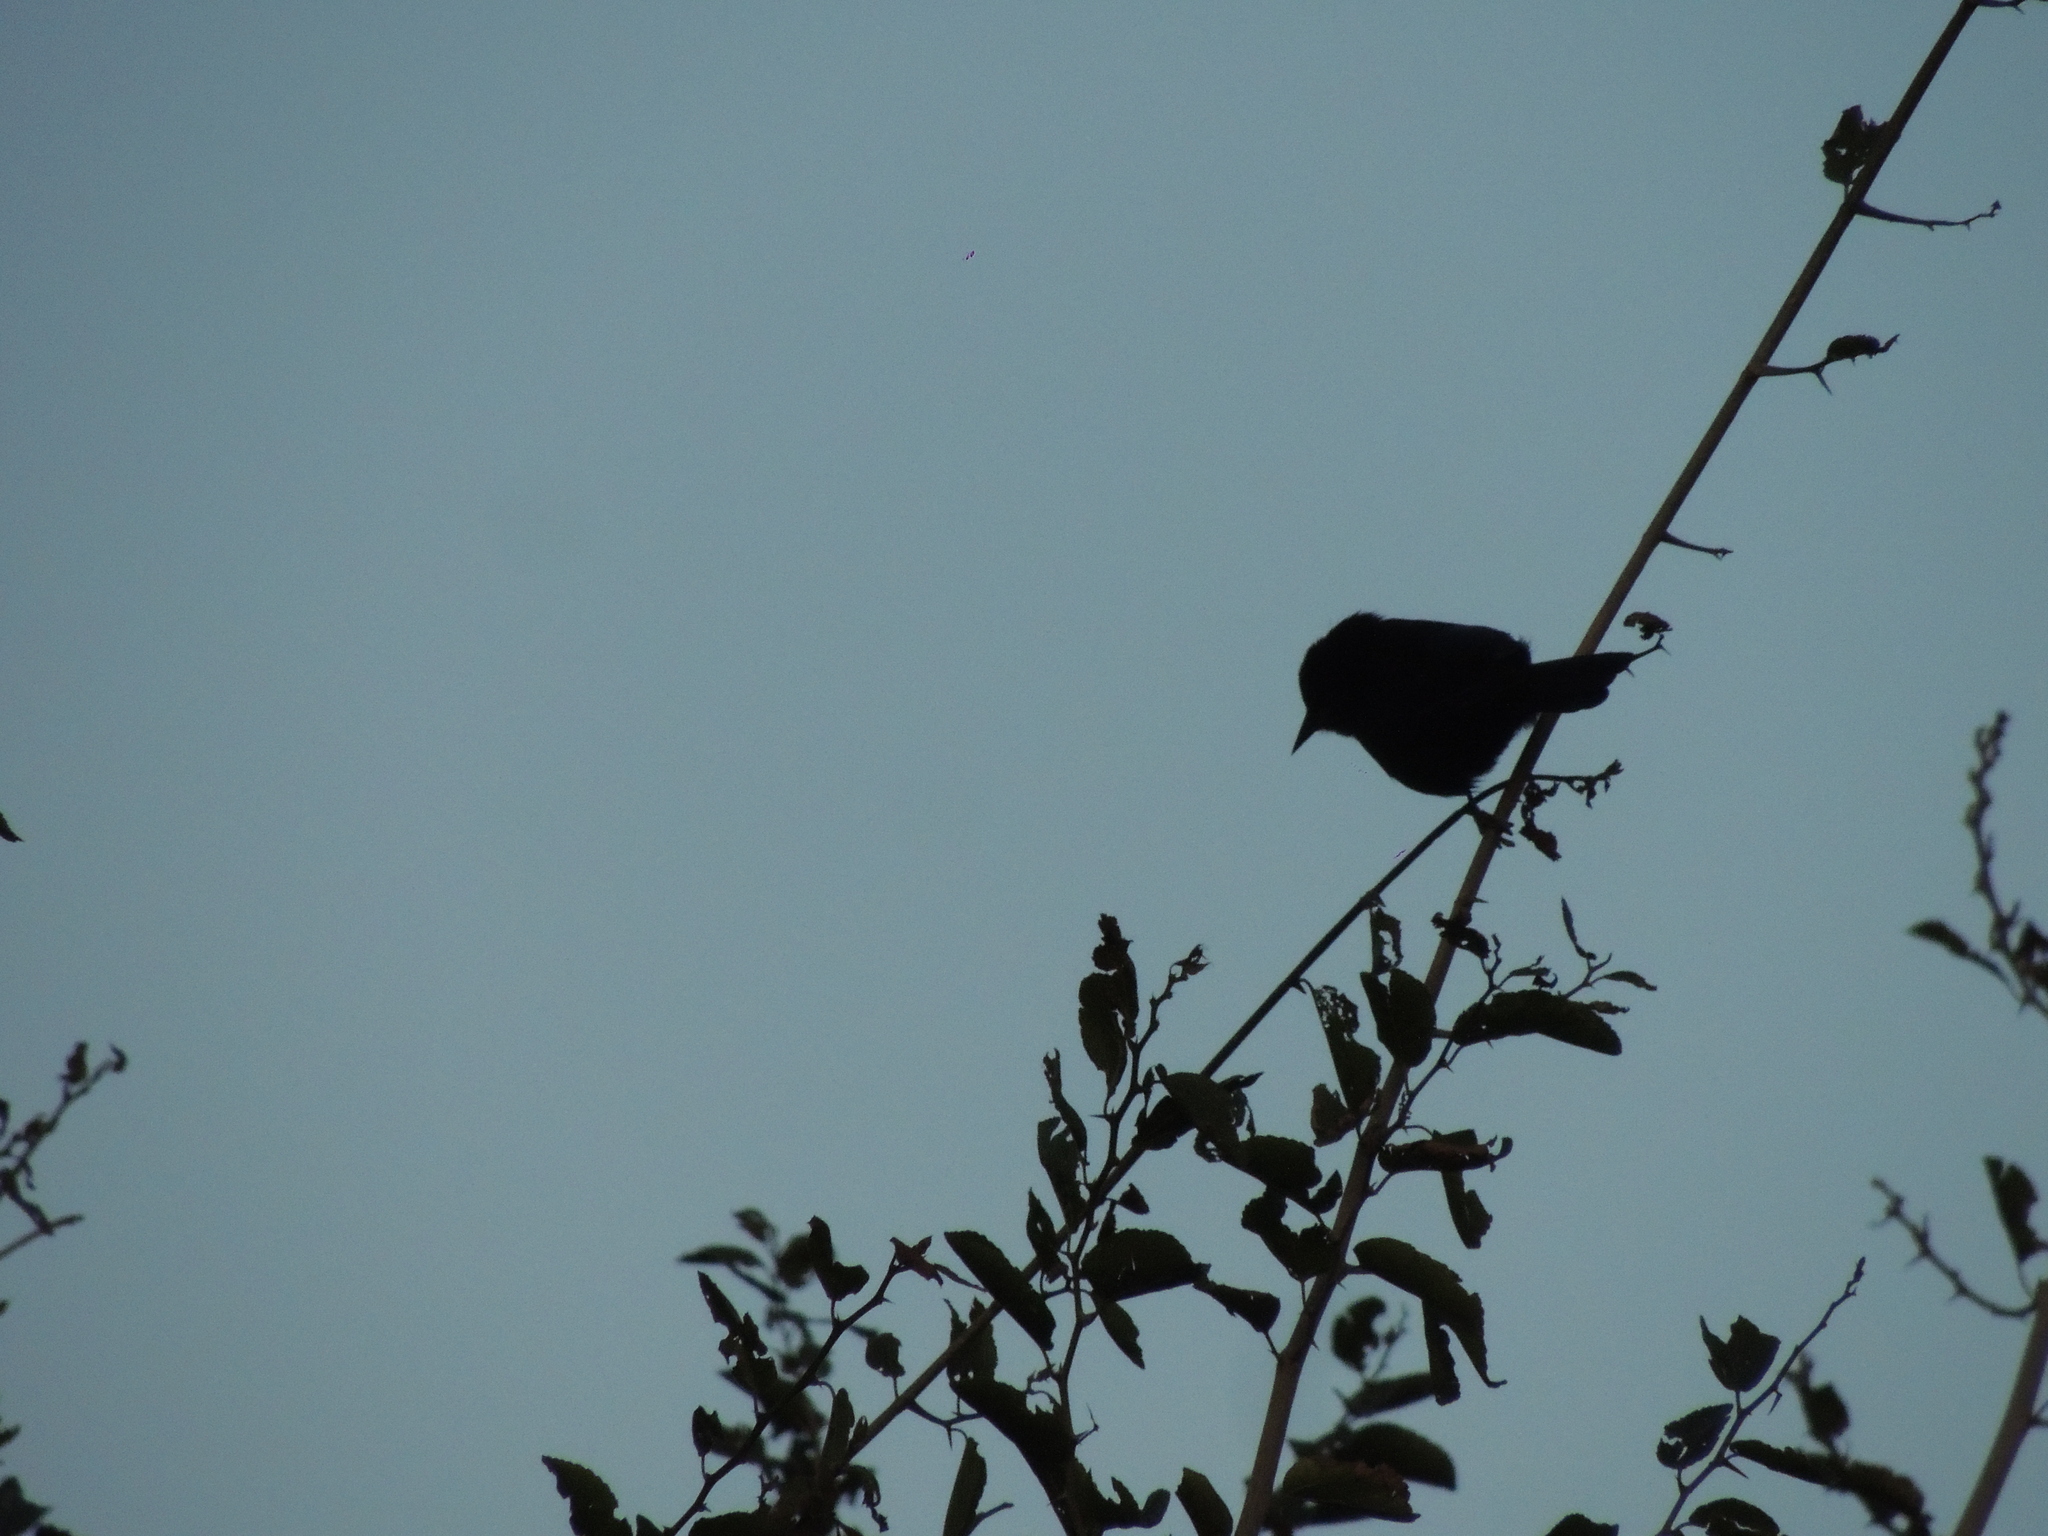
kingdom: Animalia
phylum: Chordata
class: Aves
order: Passeriformes
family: Icteridae
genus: Icterus
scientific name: Icterus cayanensis
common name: Epaulet oriole
